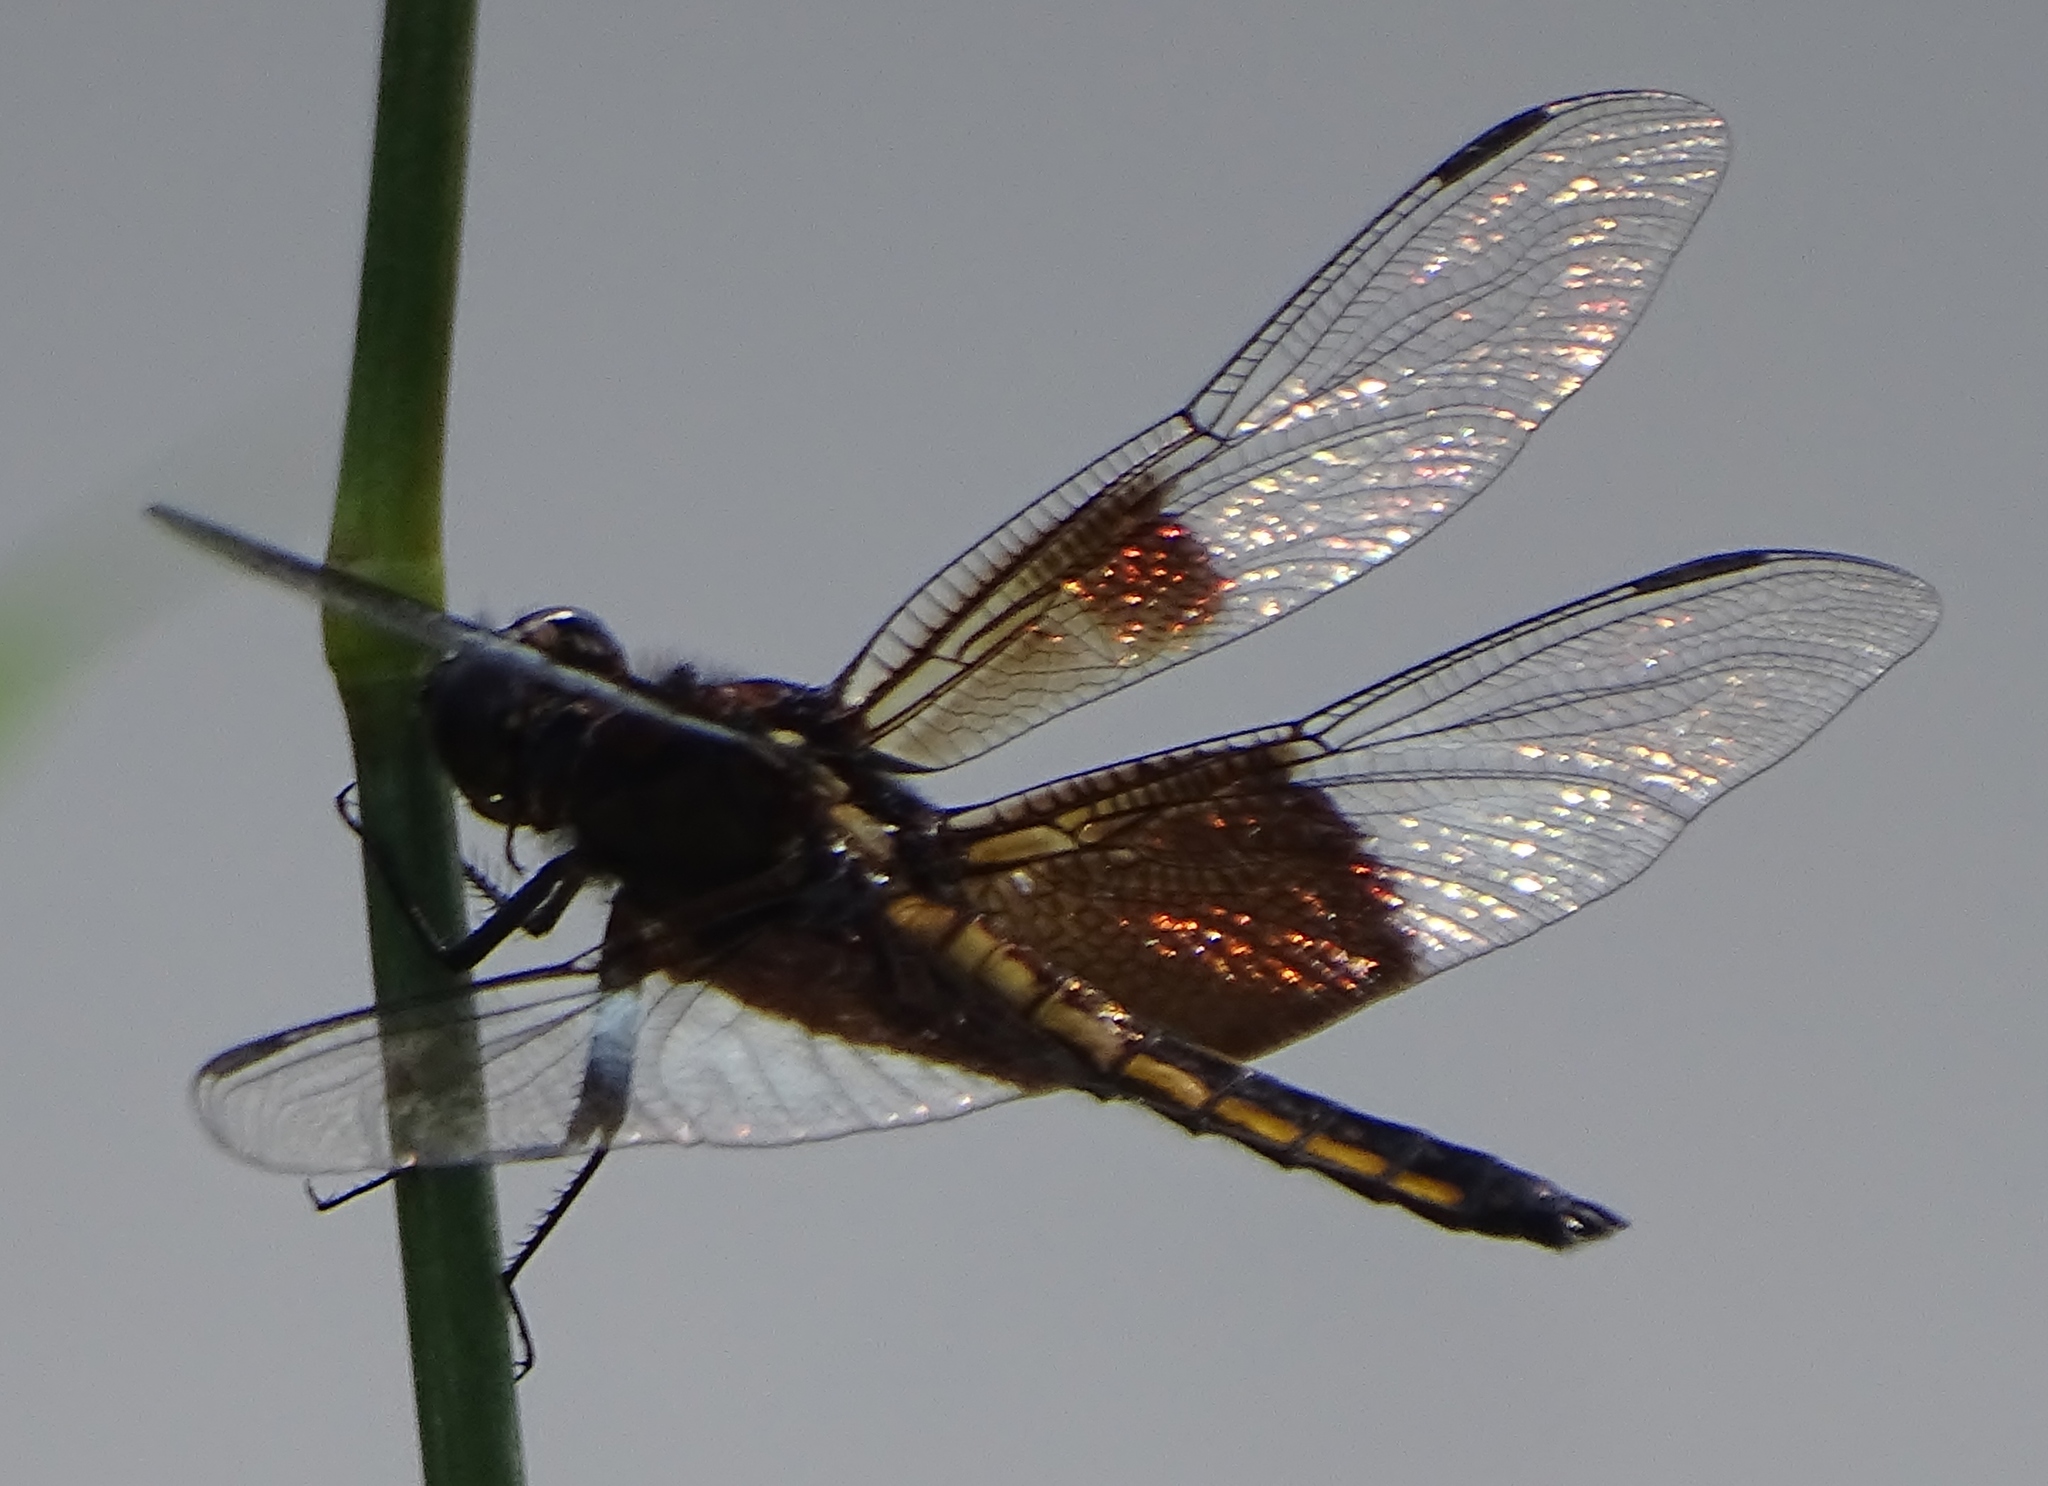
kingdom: Animalia
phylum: Arthropoda
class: Insecta
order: Odonata
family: Libellulidae
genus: Libellula
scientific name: Libellula luctuosa
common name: Widow skimmer
